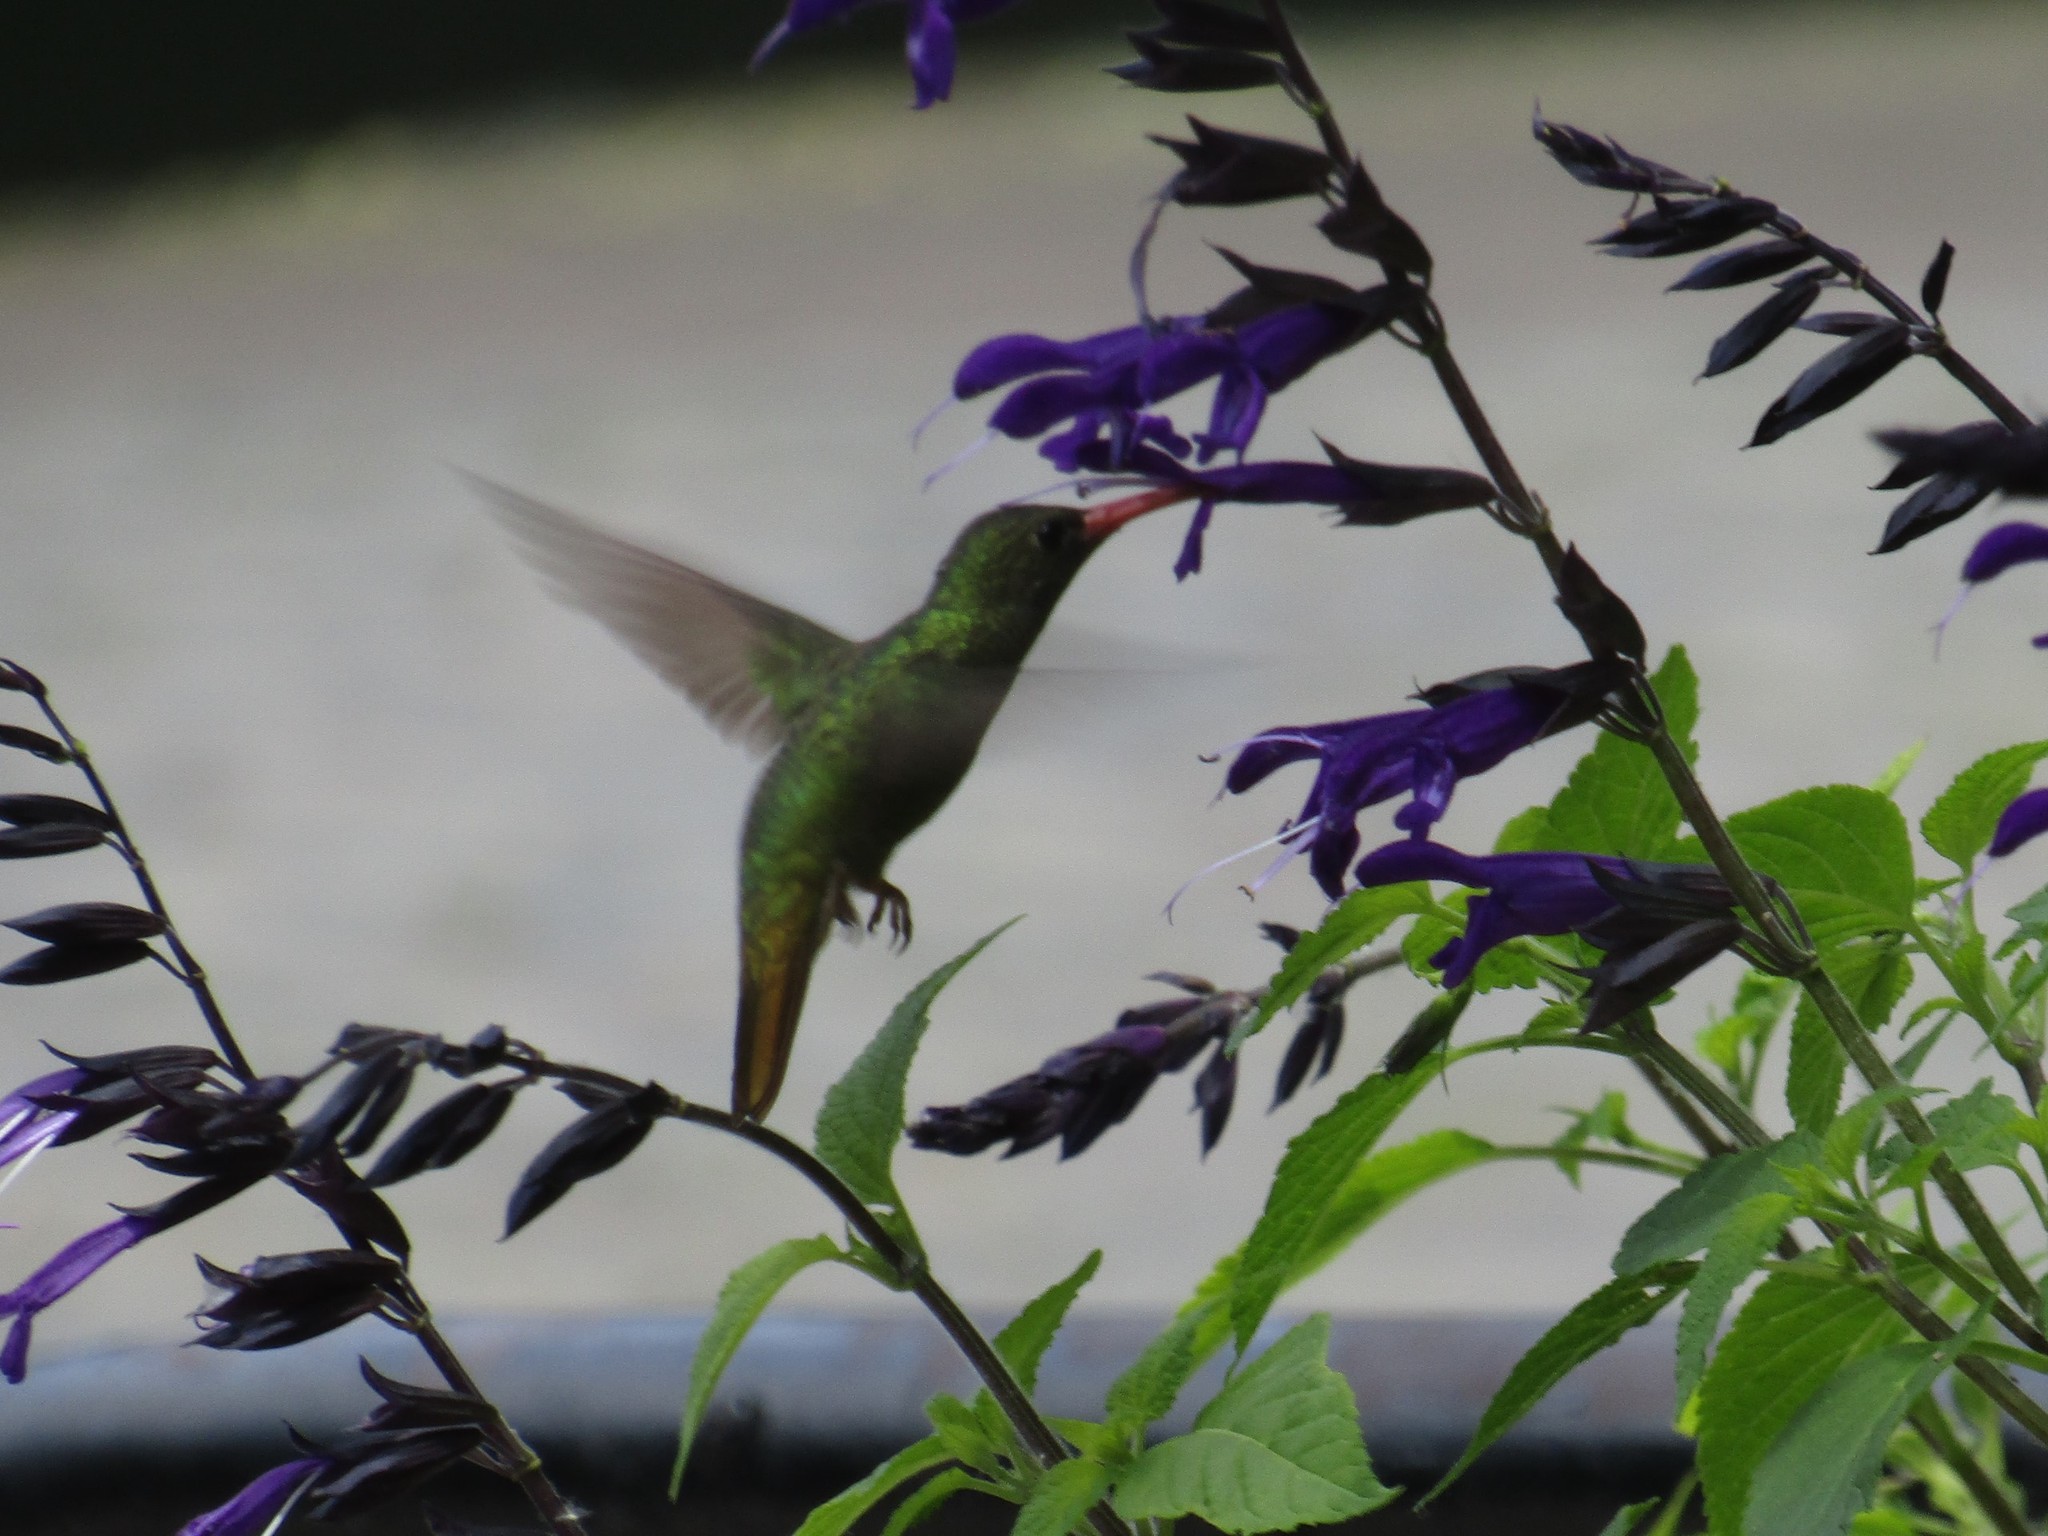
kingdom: Animalia
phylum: Chordata
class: Aves
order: Apodiformes
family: Trochilidae
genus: Hylocharis
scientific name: Hylocharis chrysura
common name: Gilded sapphire
